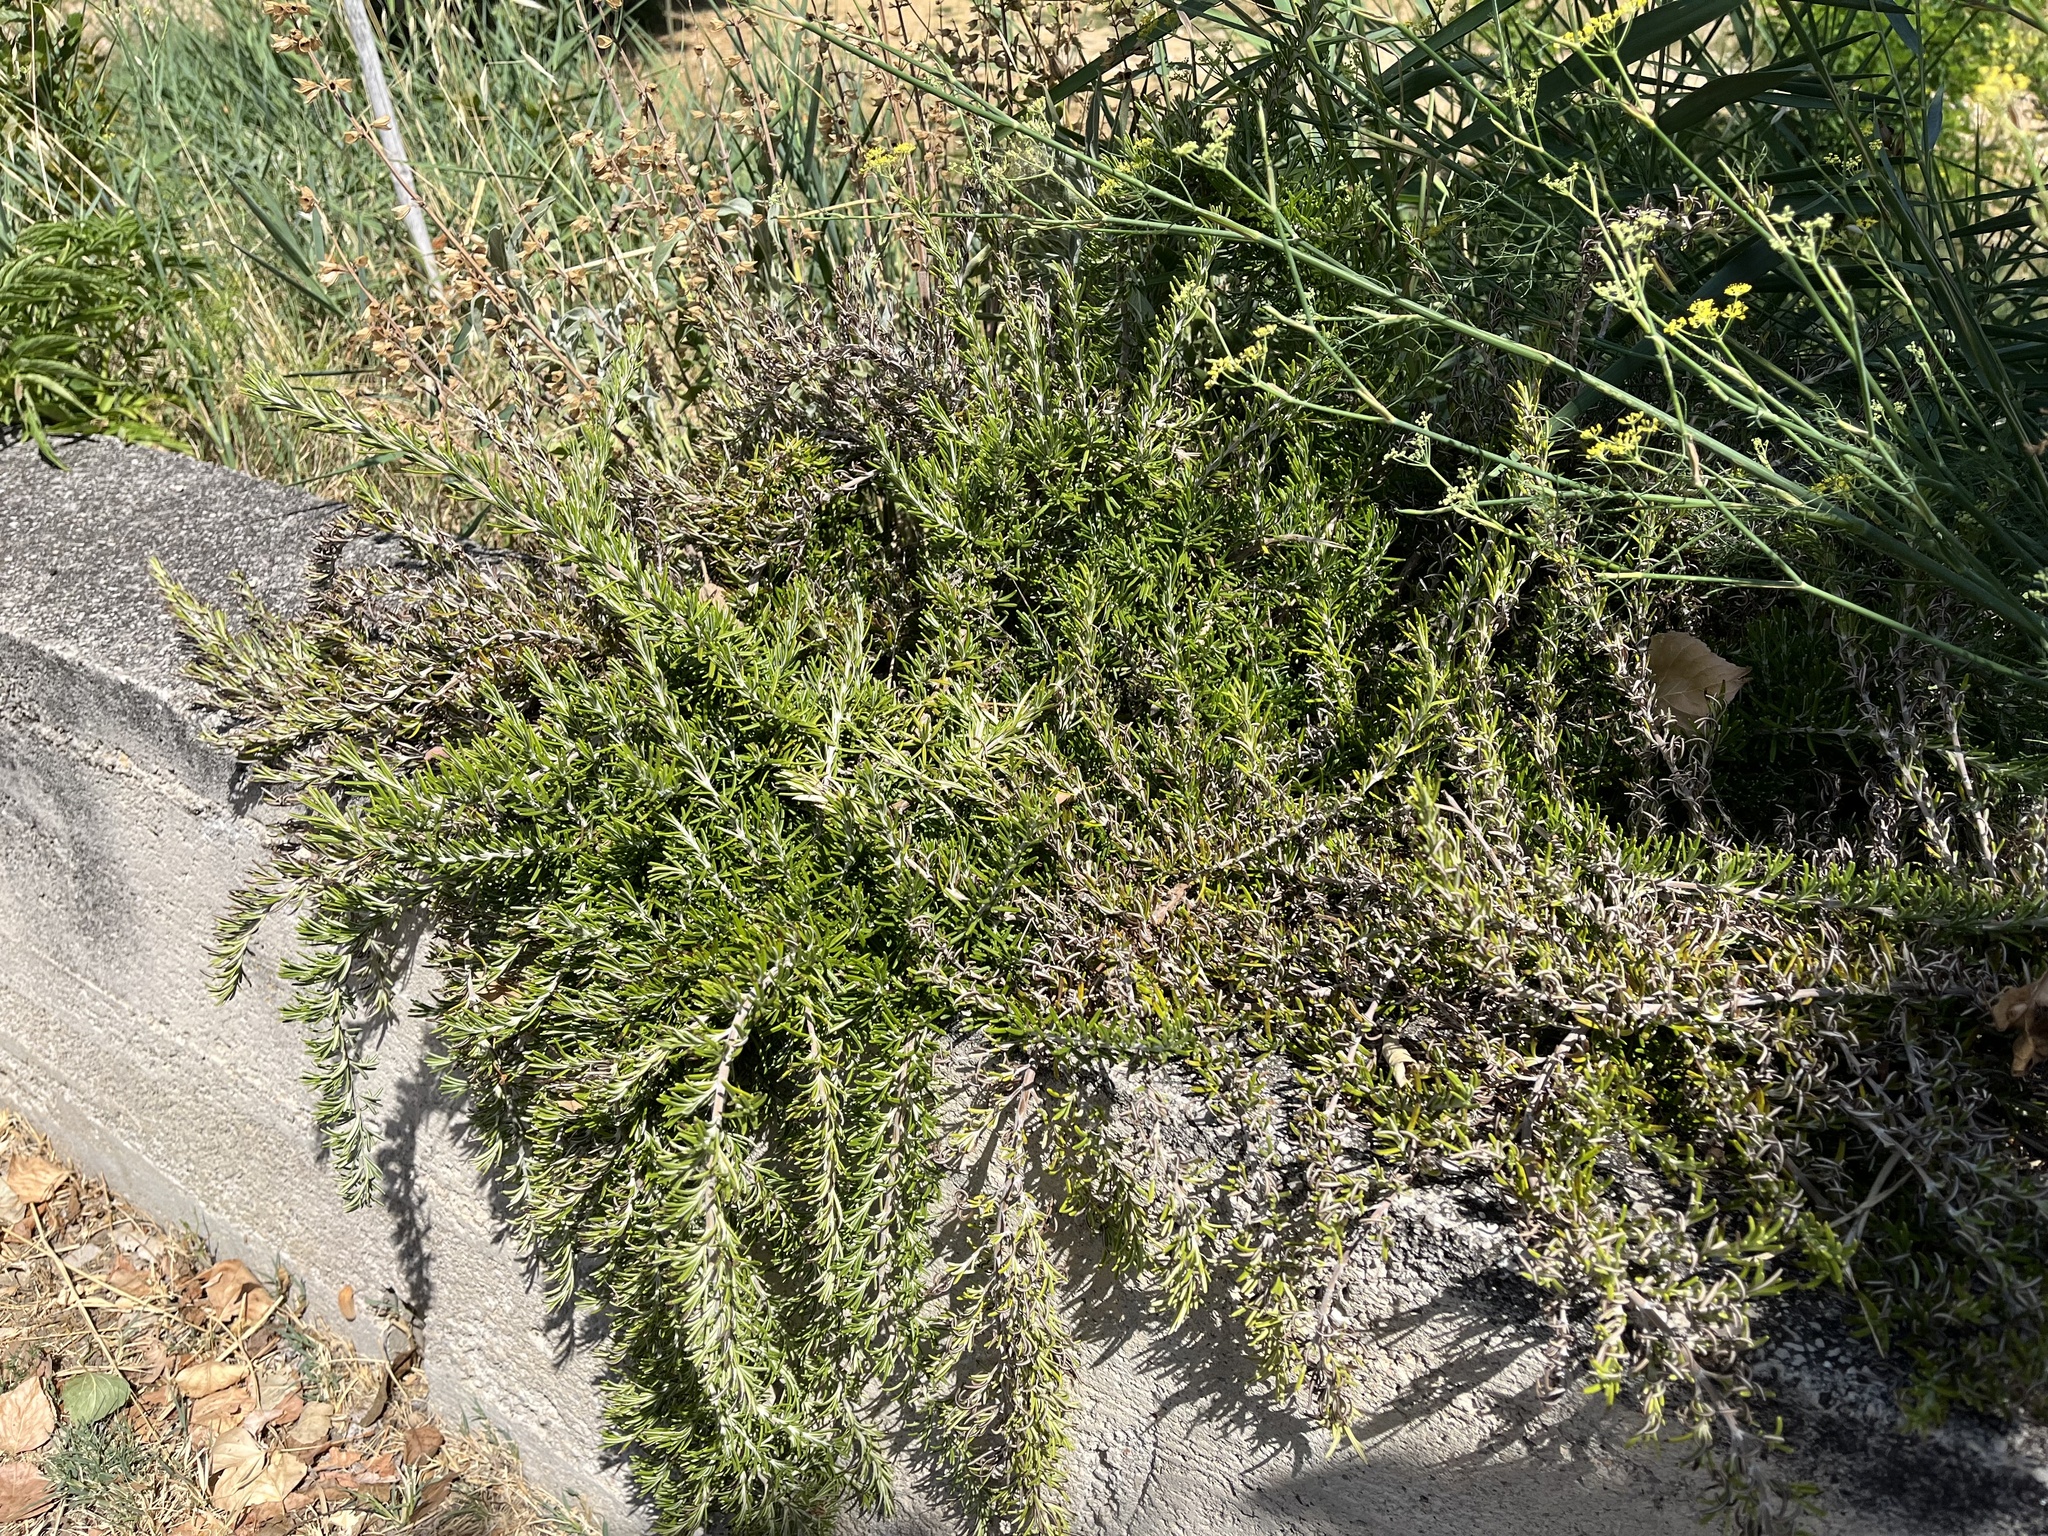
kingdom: Plantae
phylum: Tracheophyta
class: Magnoliopsida
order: Lamiales
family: Lamiaceae
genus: Salvia
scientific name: Salvia rosmarinus
